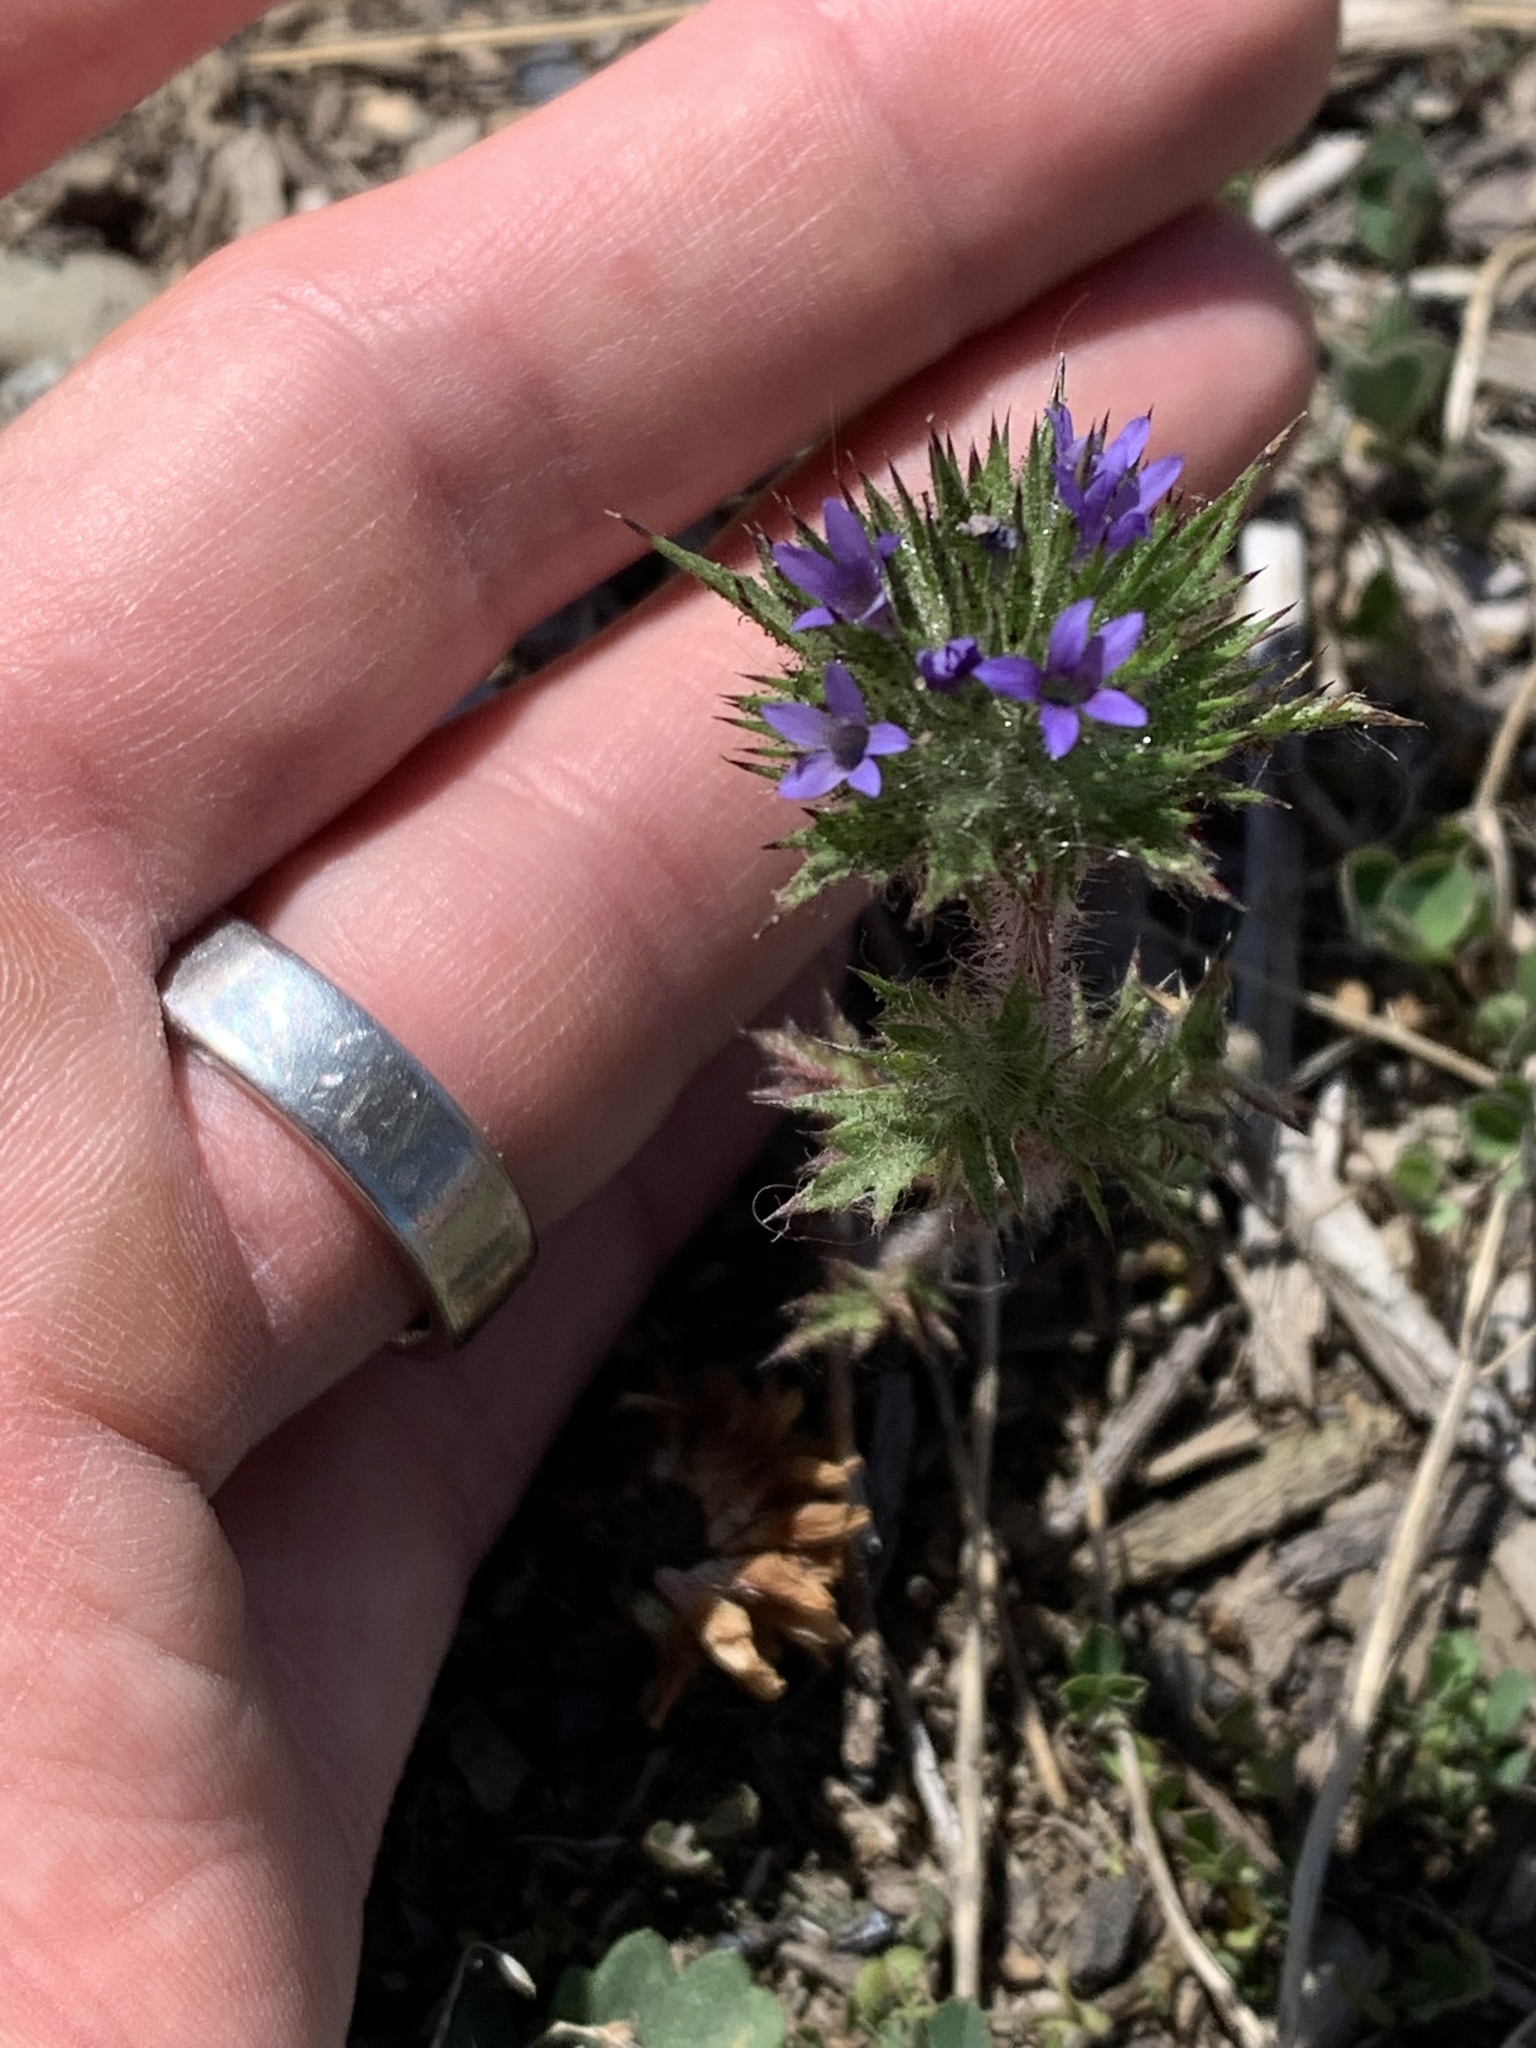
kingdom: Plantae
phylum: Tracheophyta
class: Magnoliopsida
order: Ericales
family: Polemoniaceae
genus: Navarretia
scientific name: Navarretia squarrosa
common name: Skunkweed
